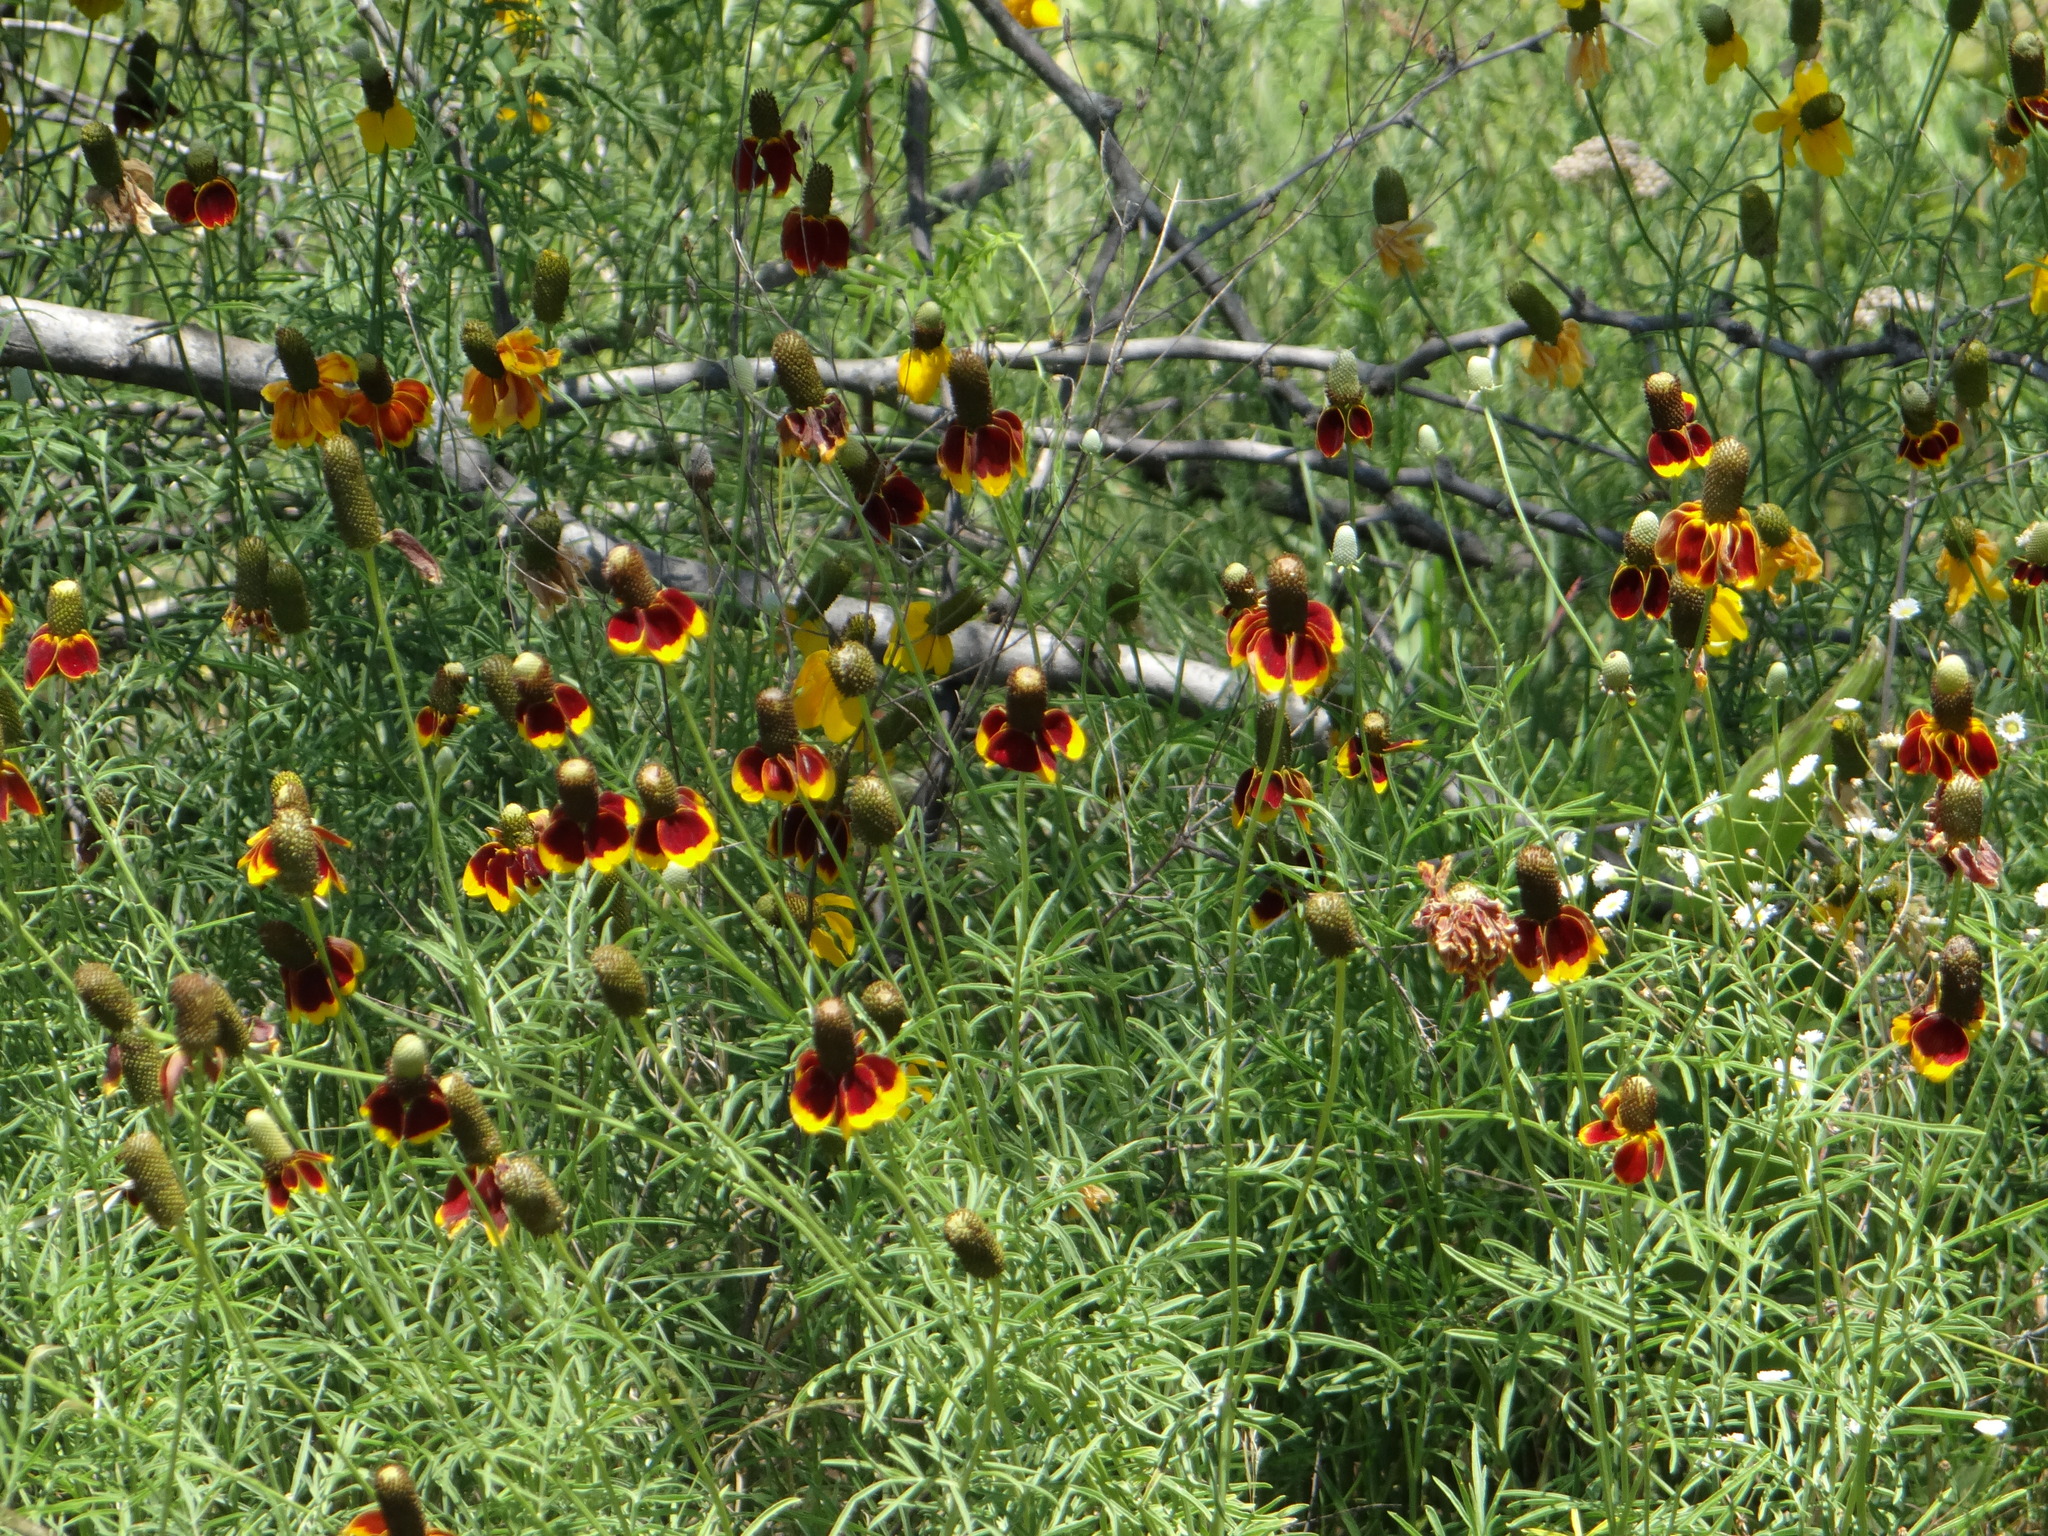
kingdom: Plantae
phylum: Tracheophyta
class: Magnoliopsida
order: Asterales
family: Asteraceae
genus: Ratibida
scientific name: Ratibida columnifera
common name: Prairie coneflower
